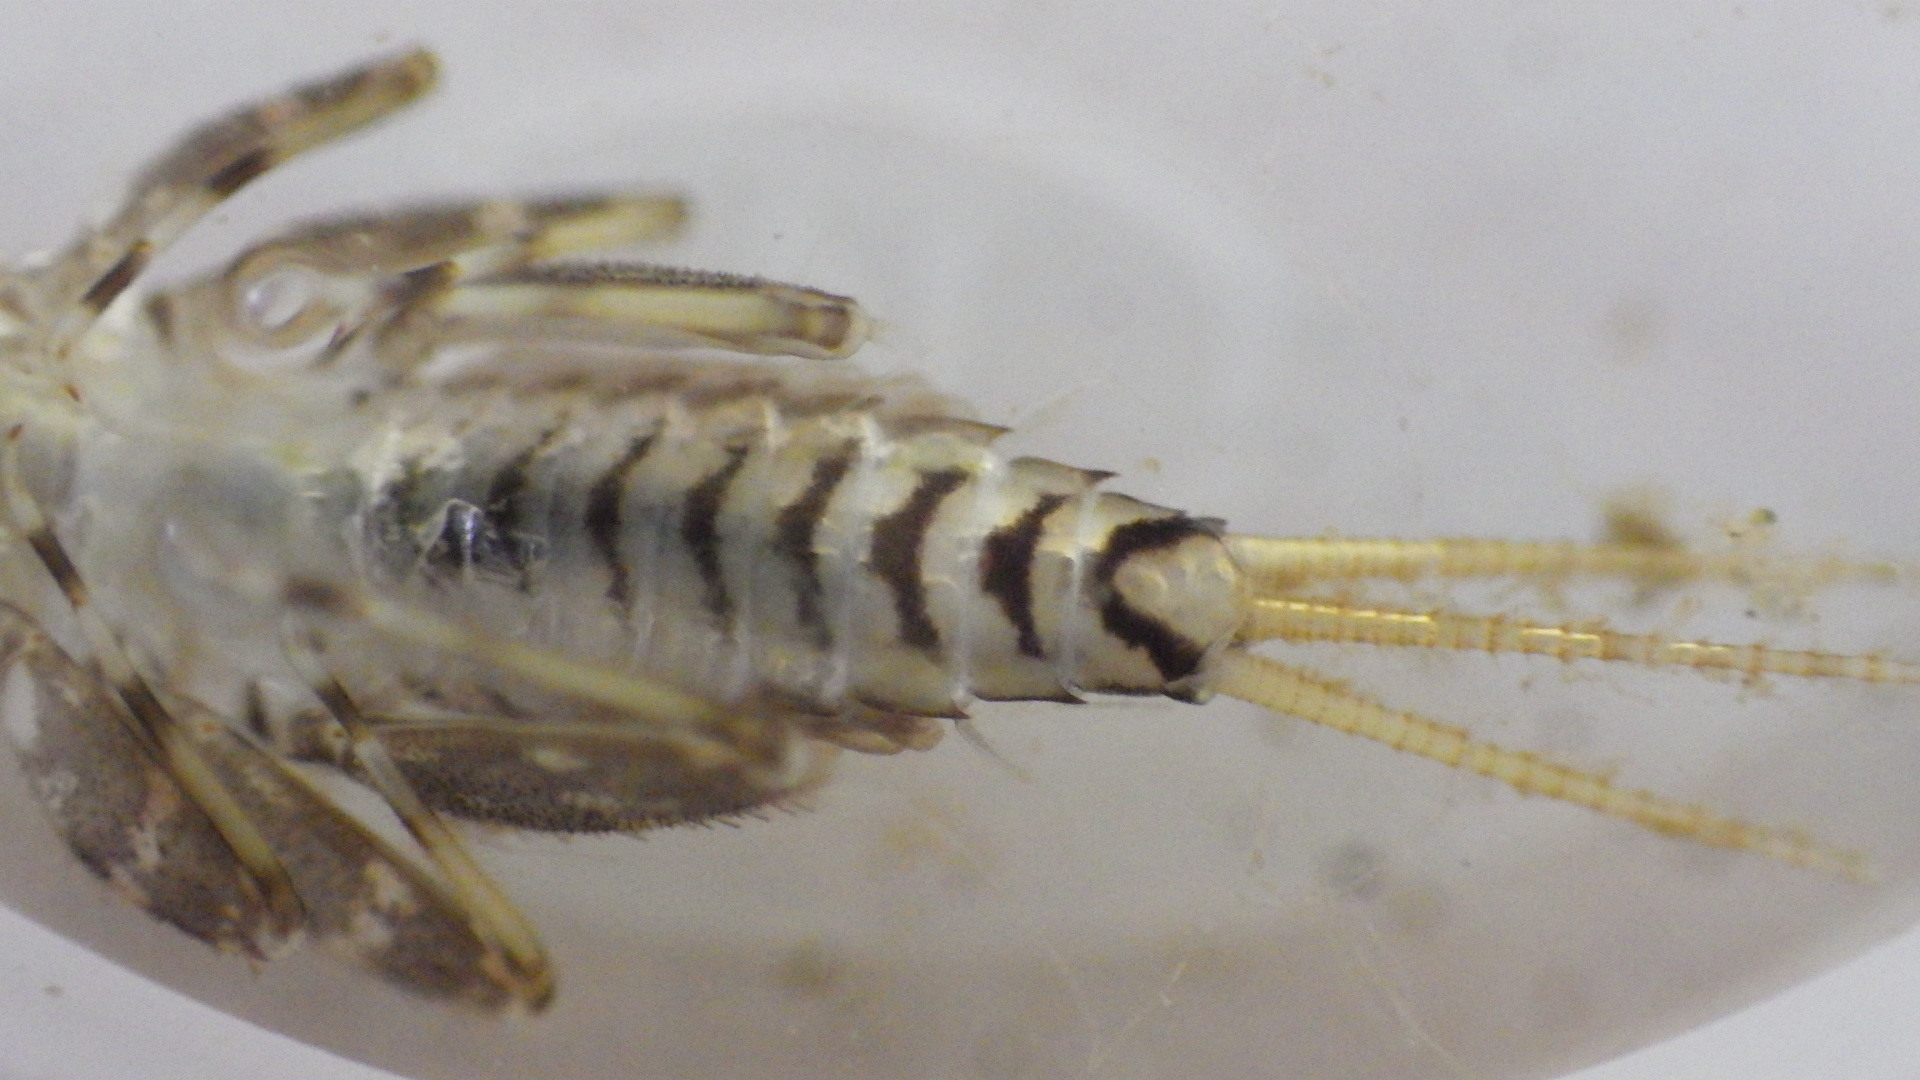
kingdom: Animalia
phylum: Arthropoda
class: Insecta
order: Ephemeroptera
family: Heptageniidae
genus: Maccaffertium
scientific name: Maccaffertium modestum
